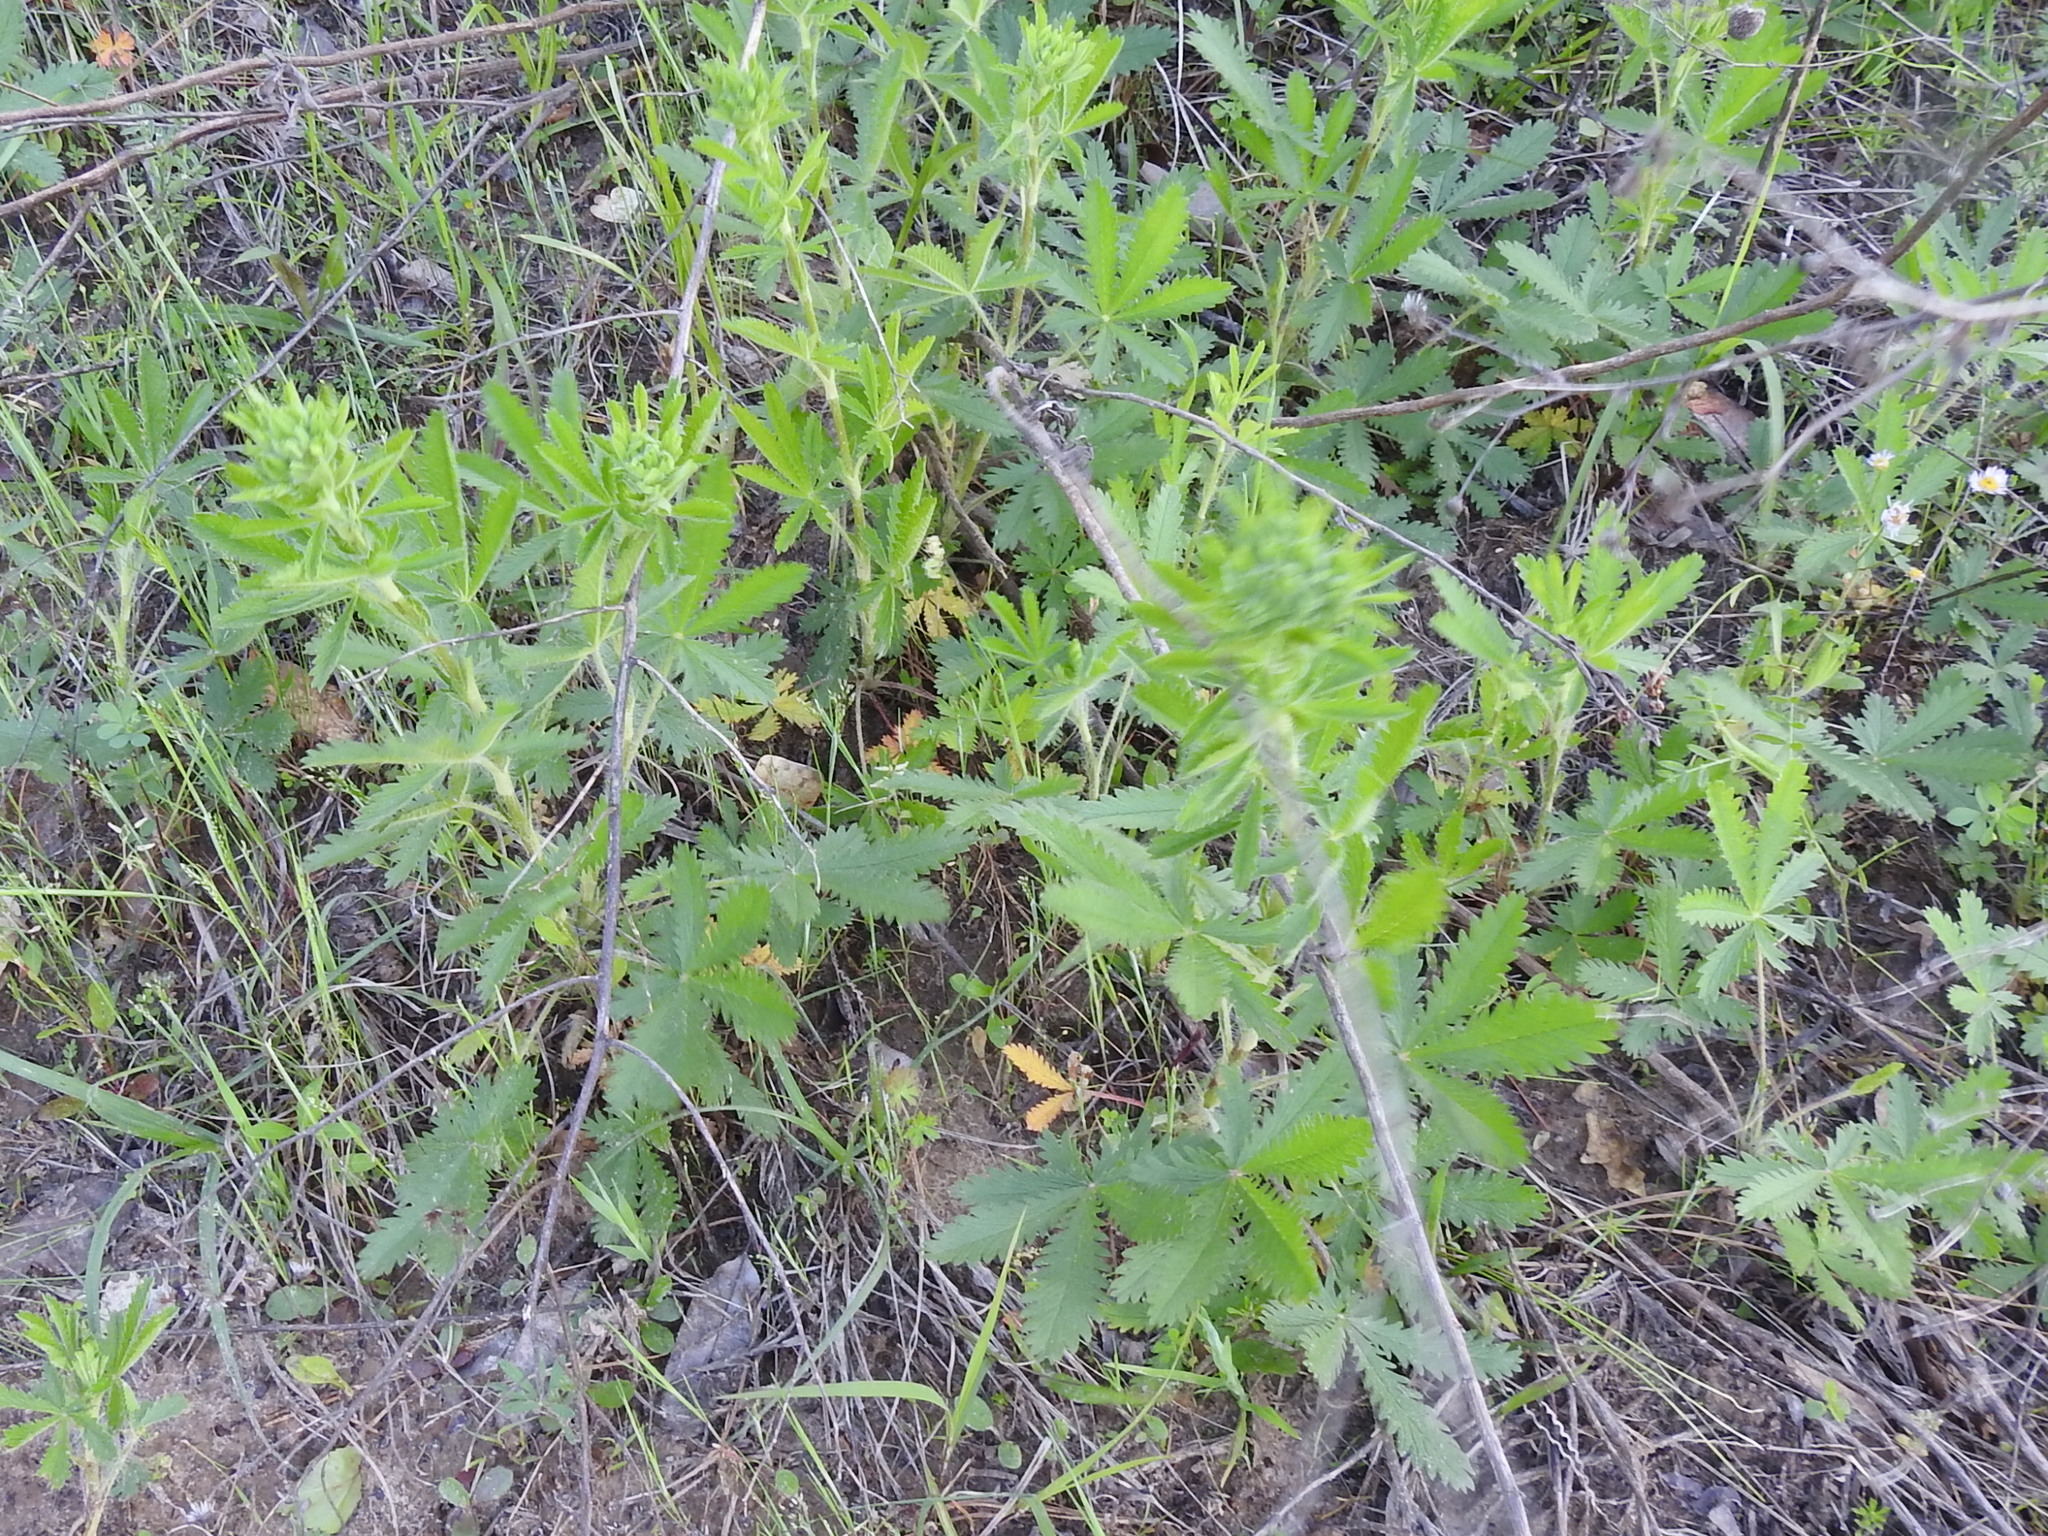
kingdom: Plantae
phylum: Tracheophyta
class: Magnoliopsida
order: Rosales
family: Rosaceae
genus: Potentilla
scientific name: Potentilla recta
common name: Sulphur cinquefoil
